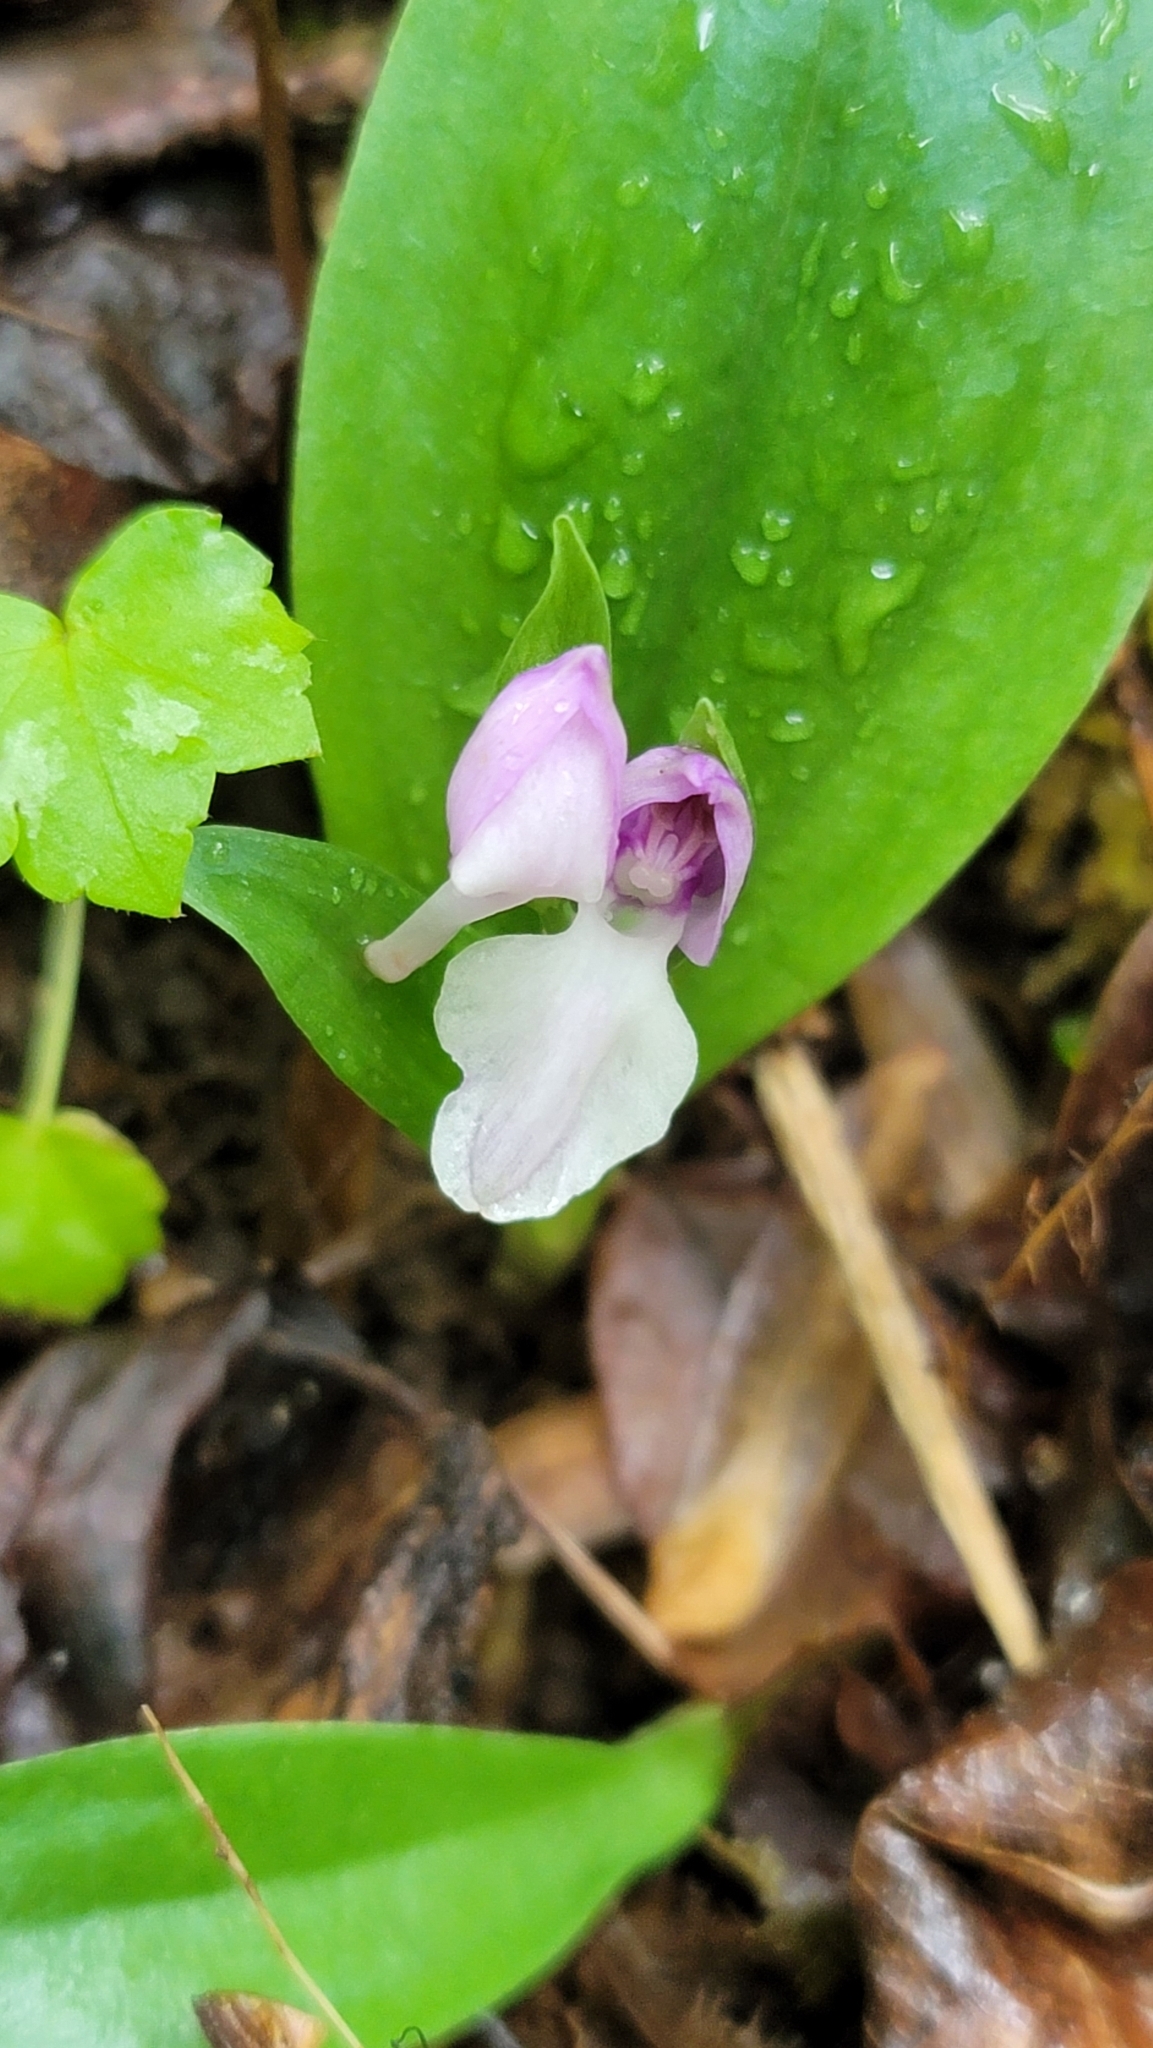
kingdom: Plantae
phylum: Tracheophyta
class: Liliopsida
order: Asparagales
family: Orchidaceae
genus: Galearis
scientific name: Galearis spectabilis
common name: Purple-hooded orchis
